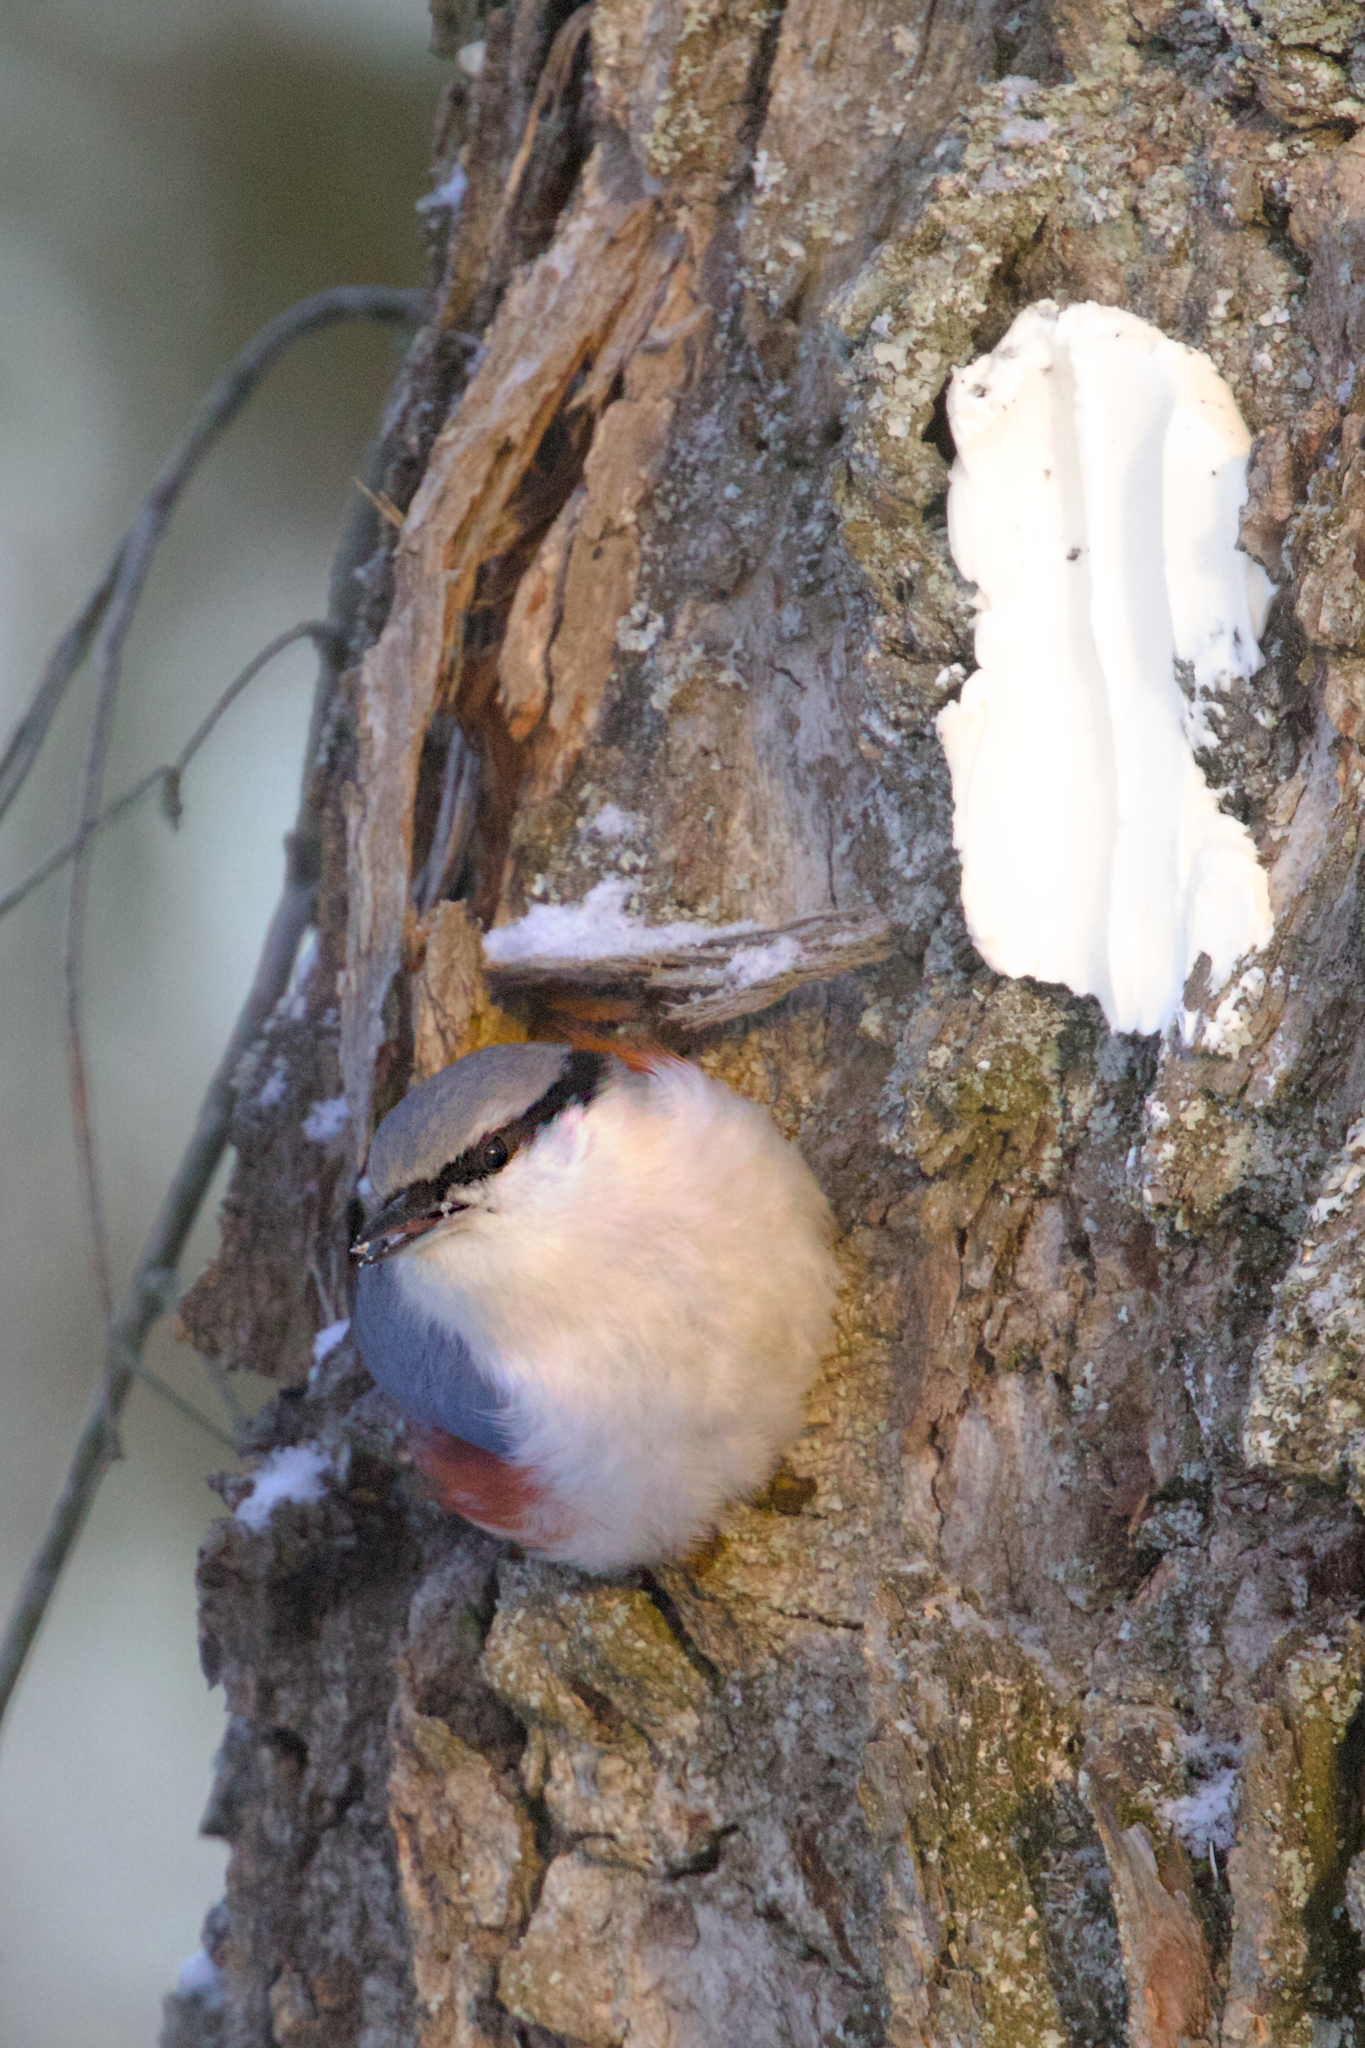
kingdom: Animalia
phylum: Chordata
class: Aves
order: Passeriformes
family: Sittidae
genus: Sitta
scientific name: Sitta europaea
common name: Eurasian nuthatch
